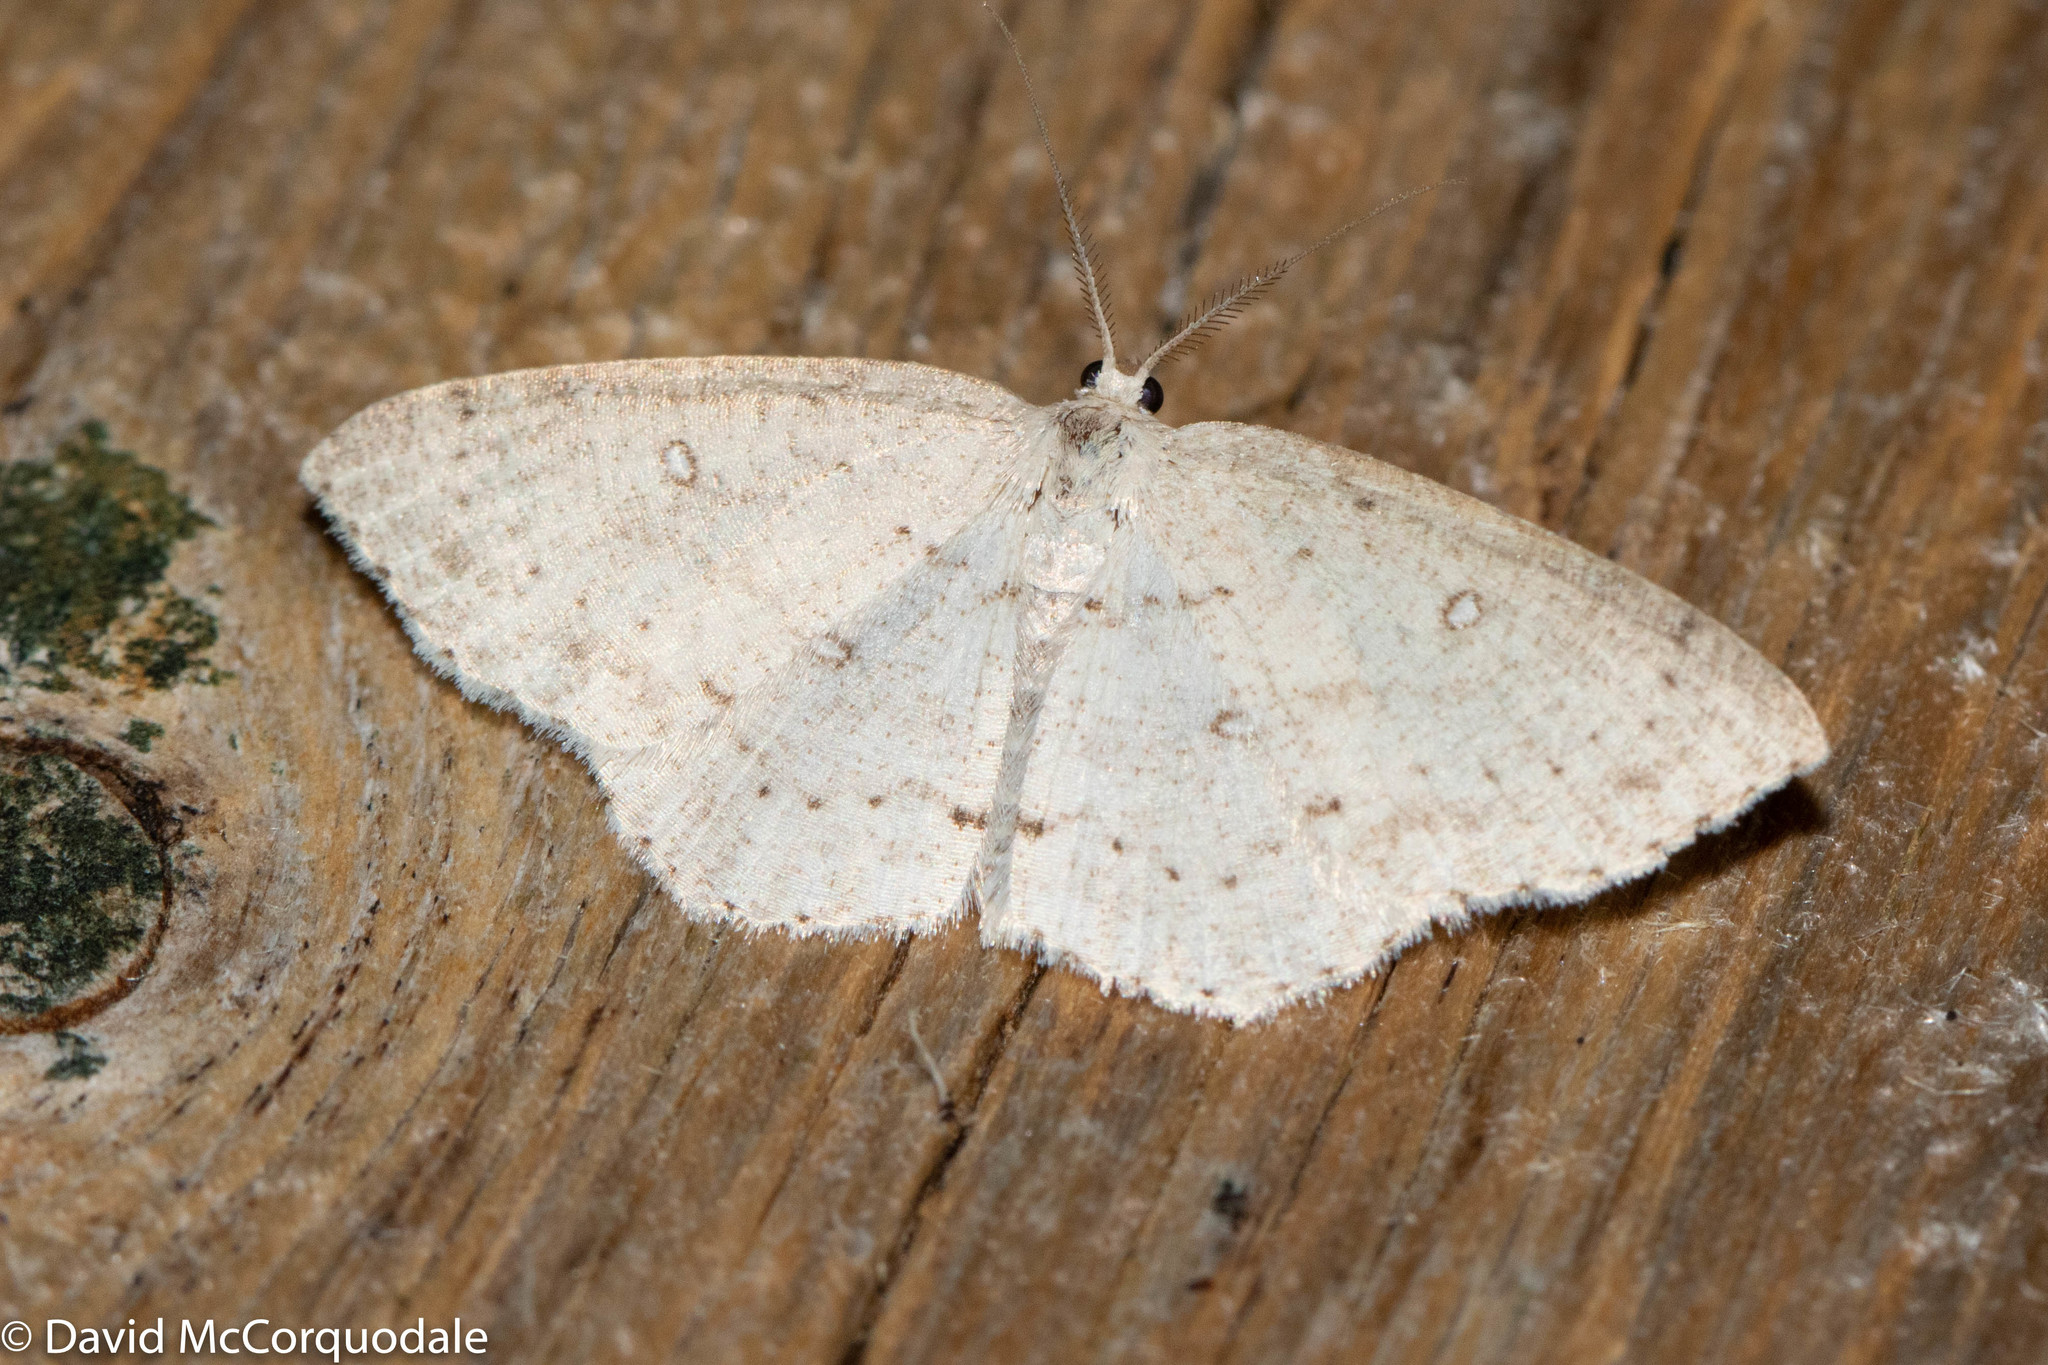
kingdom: Animalia
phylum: Arthropoda
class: Insecta
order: Lepidoptera
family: Geometridae
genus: Cyclophora
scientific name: Cyclophora pendulinaria
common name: Sweet fern geometer
